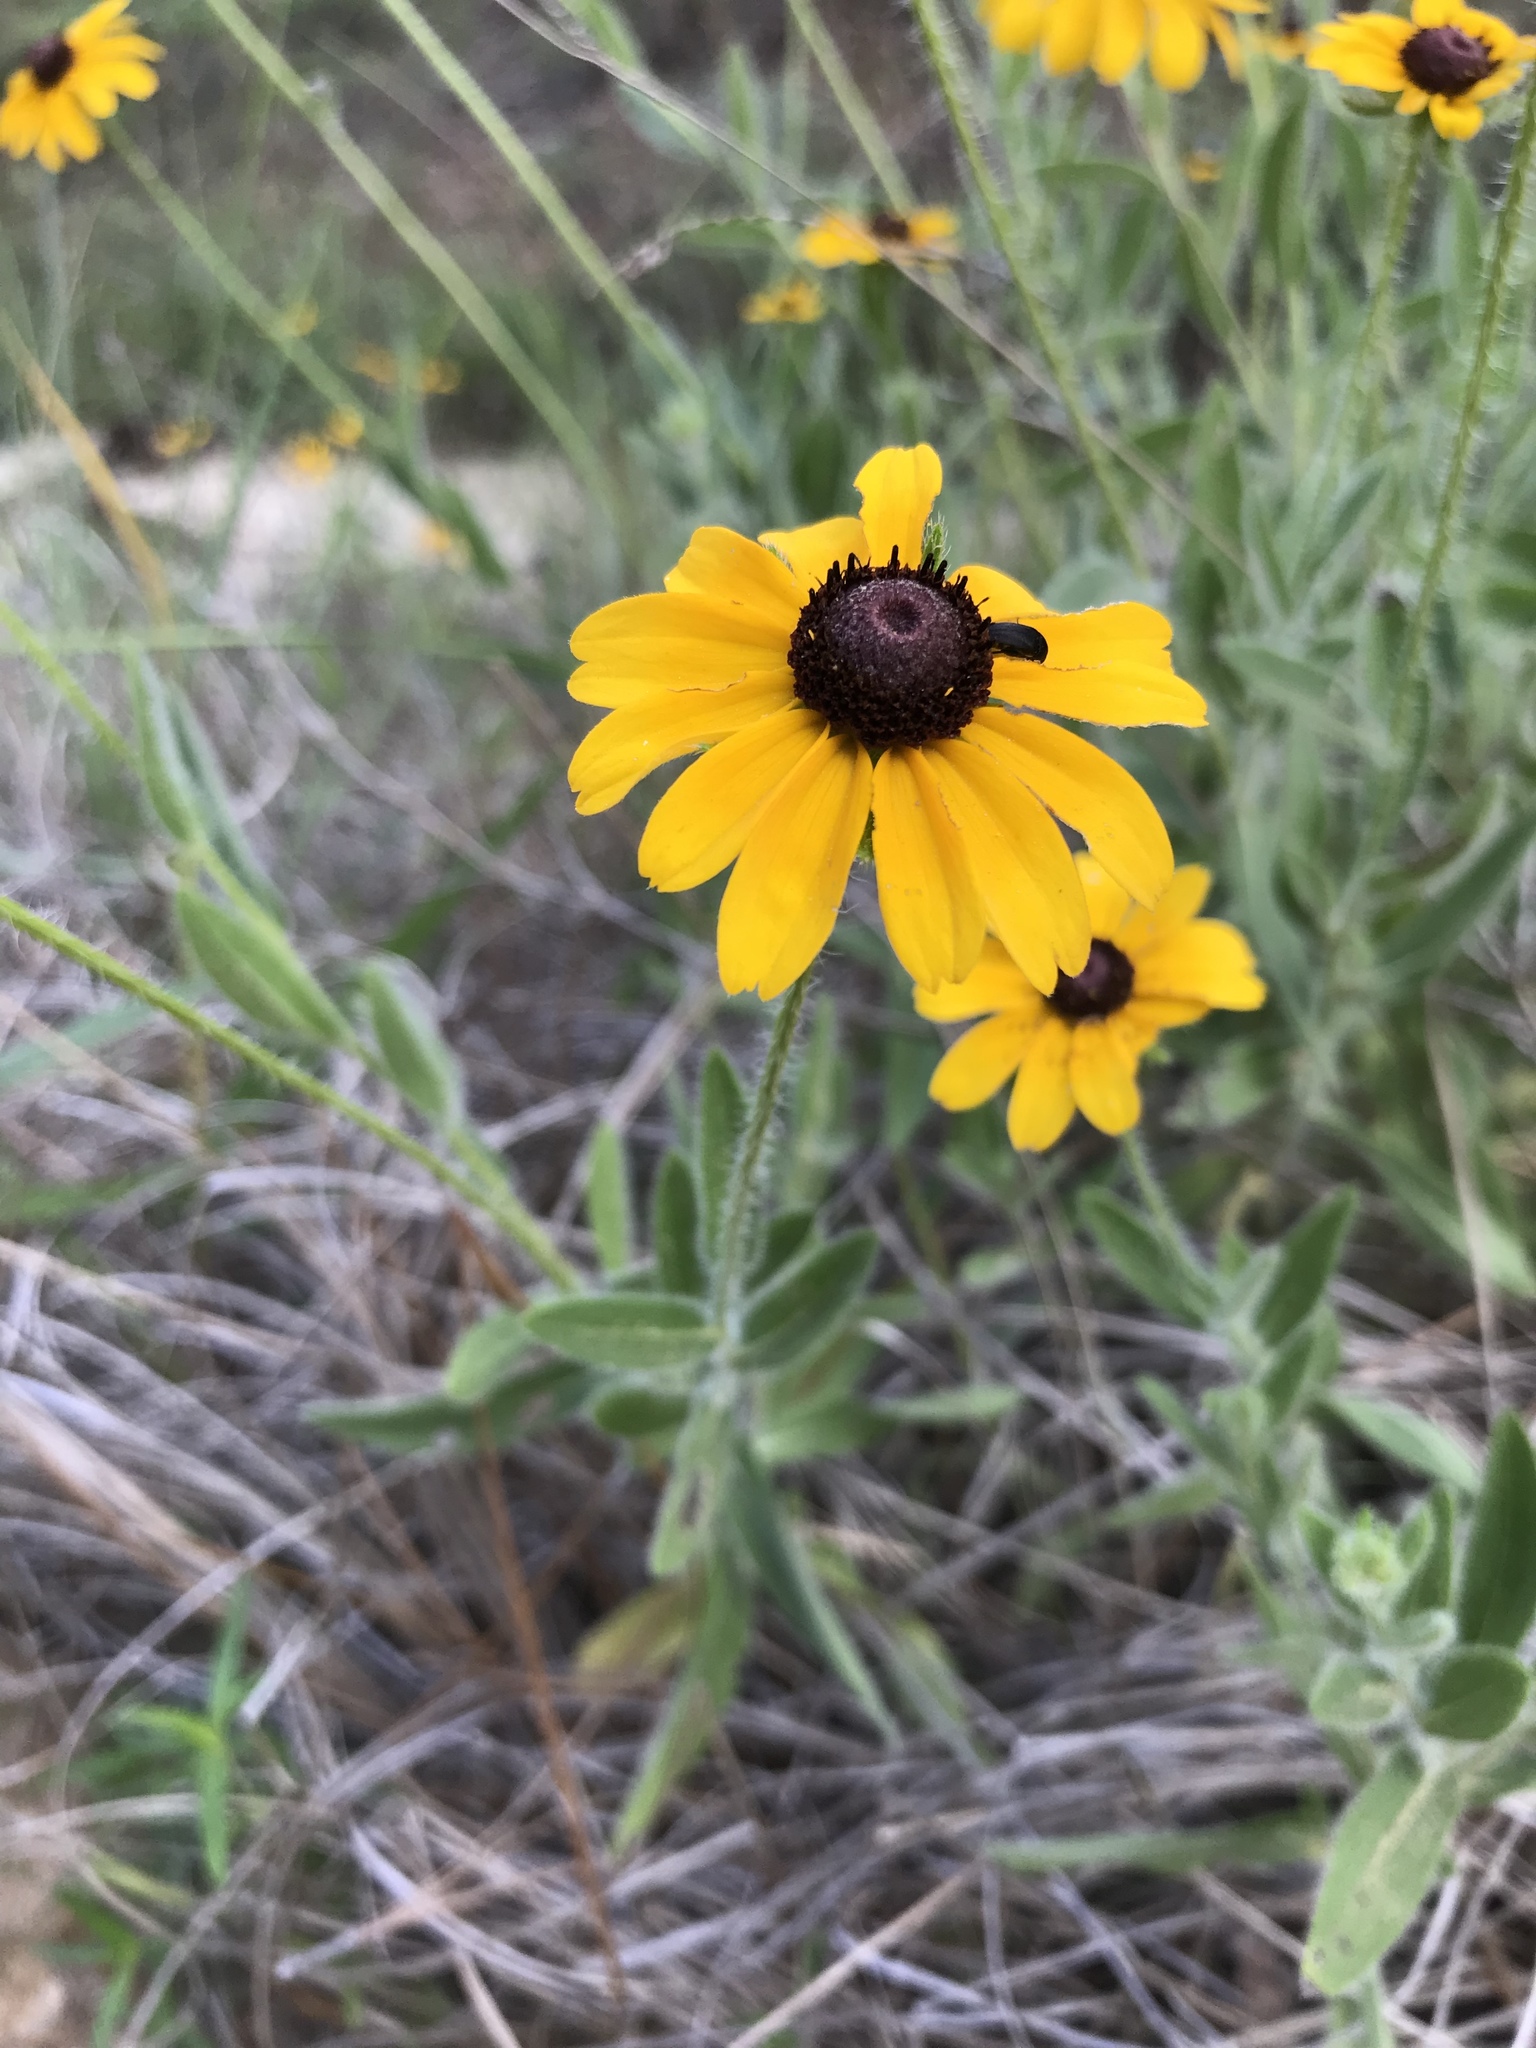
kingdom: Plantae
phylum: Tracheophyta
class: Magnoliopsida
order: Asterales
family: Asteraceae
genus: Rudbeckia
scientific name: Rudbeckia hirta
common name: Black-eyed-susan
